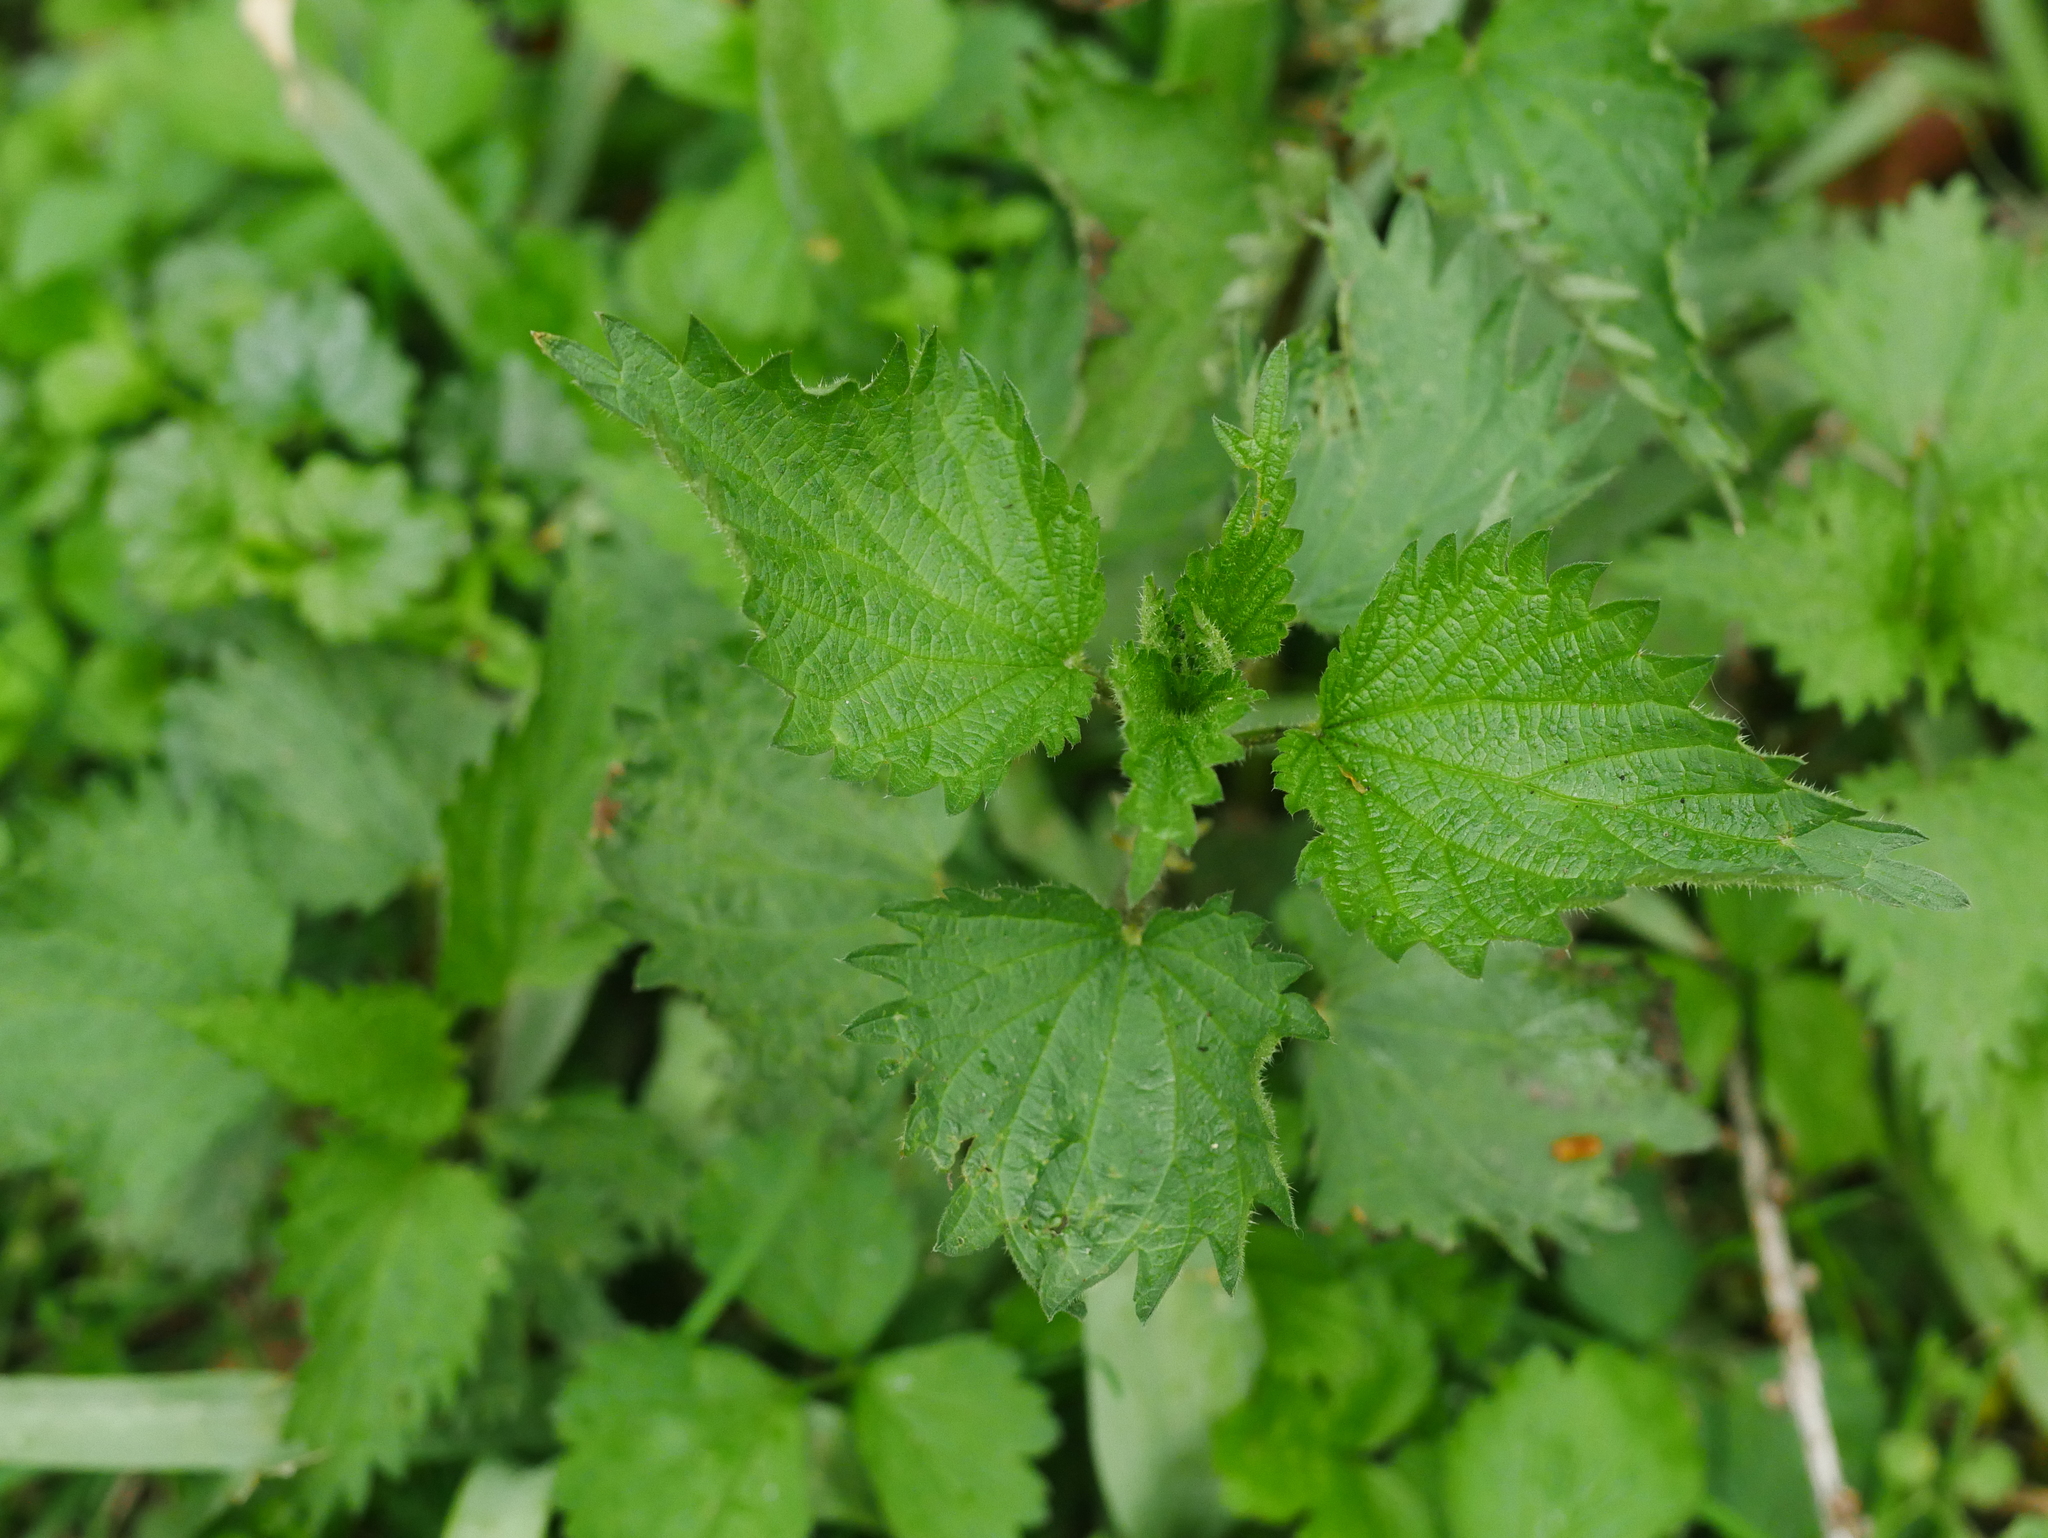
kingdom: Plantae
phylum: Tracheophyta
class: Magnoliopsida
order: Rosales
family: Urticaceae
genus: Urtica
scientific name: Urtica dioica
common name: Common nettle
